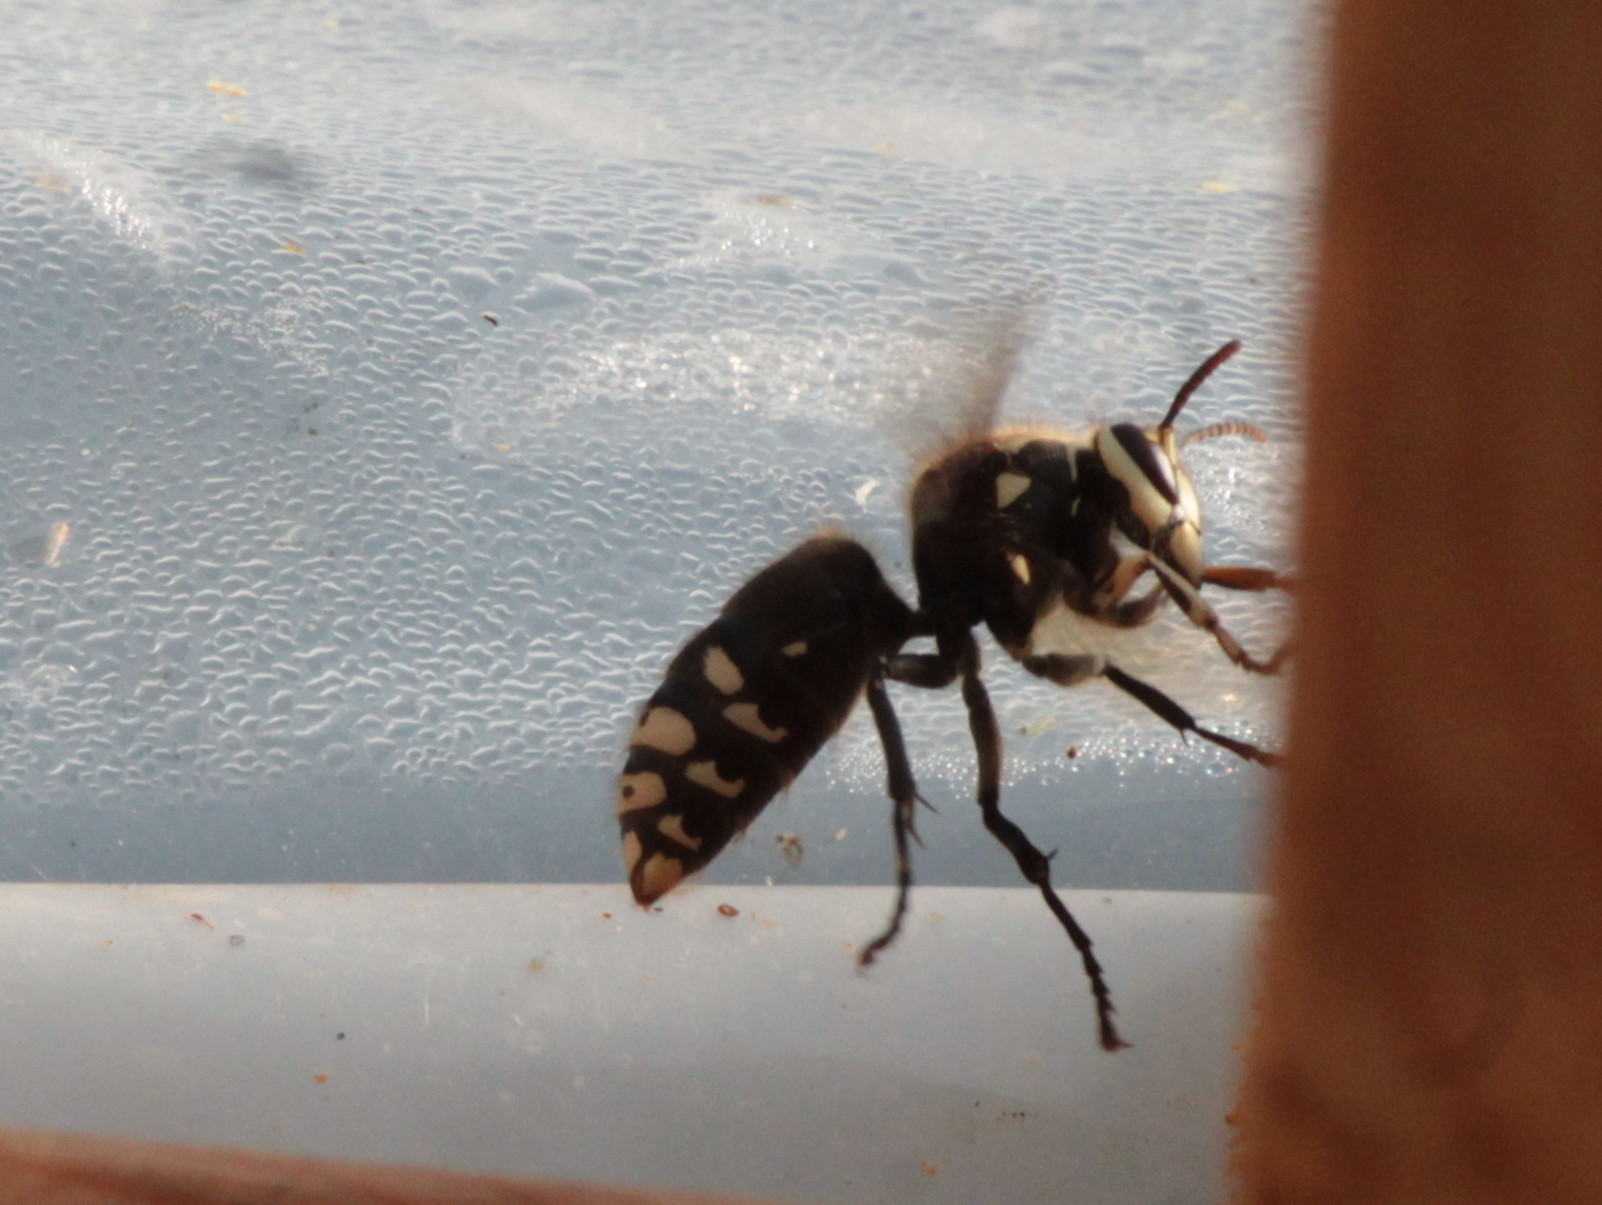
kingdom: Animalia
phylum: Arthropoda
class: Insecta
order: Hymenoptera
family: Vespidae
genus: Dolichovespula
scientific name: Dolichovespula maculata
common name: Bald-faced hornet
